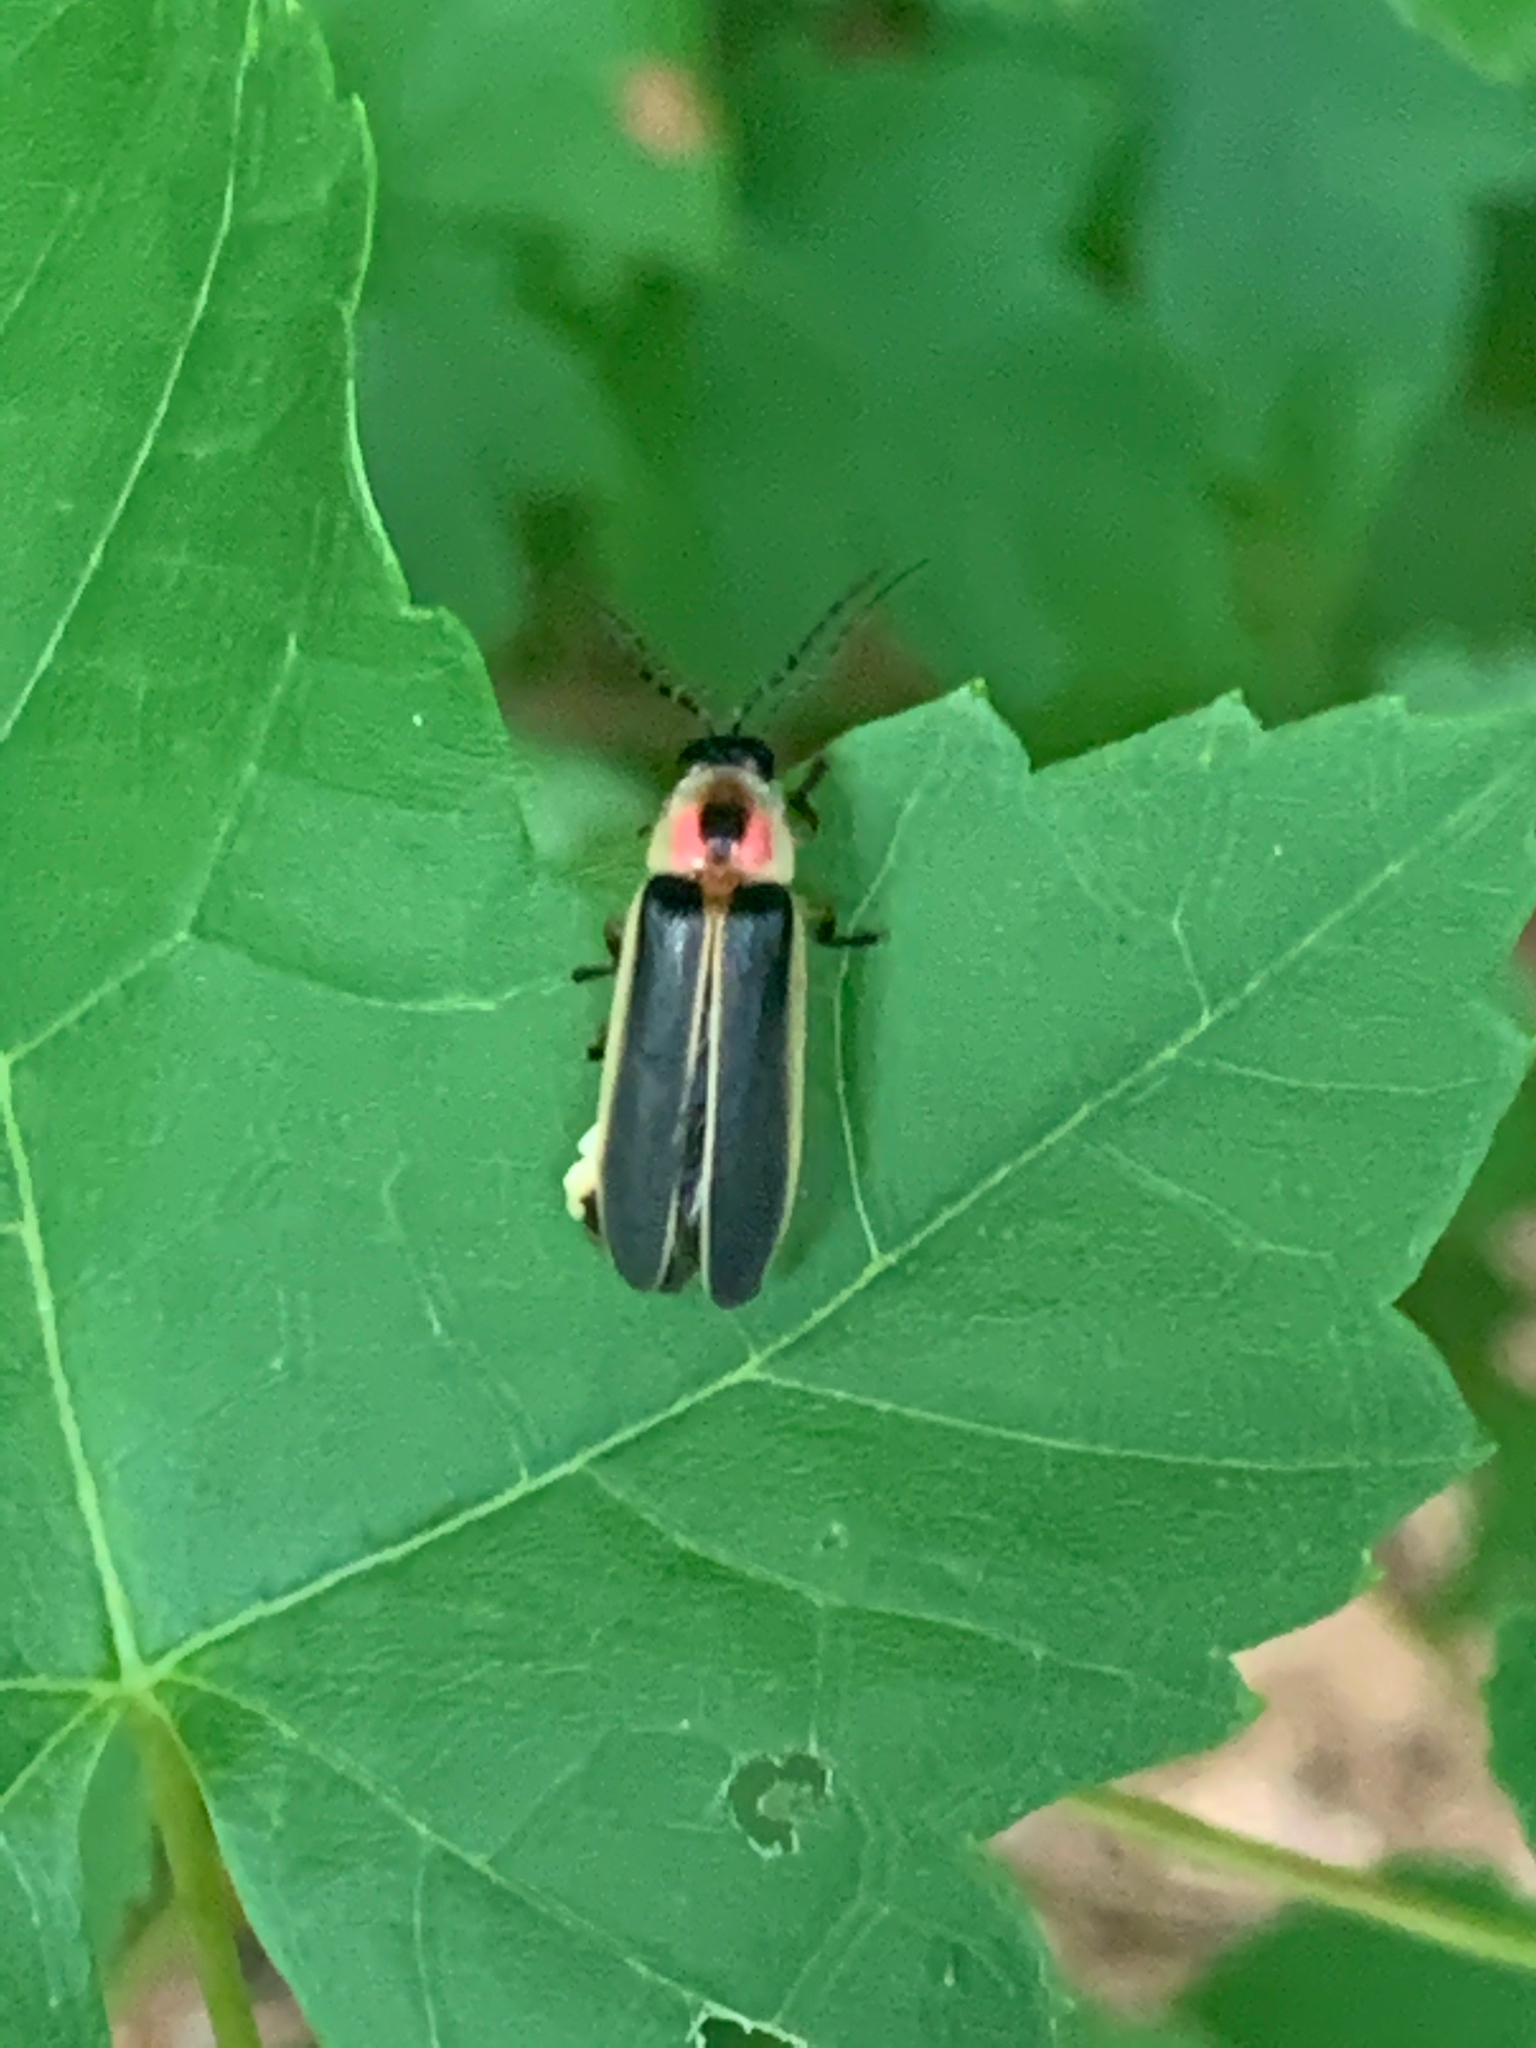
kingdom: Animalia
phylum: Arthropoda
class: Insecta
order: Coleoptera
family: Lampyridae
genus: Photinus
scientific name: Photinus pyralis
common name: Big dipper firefly
